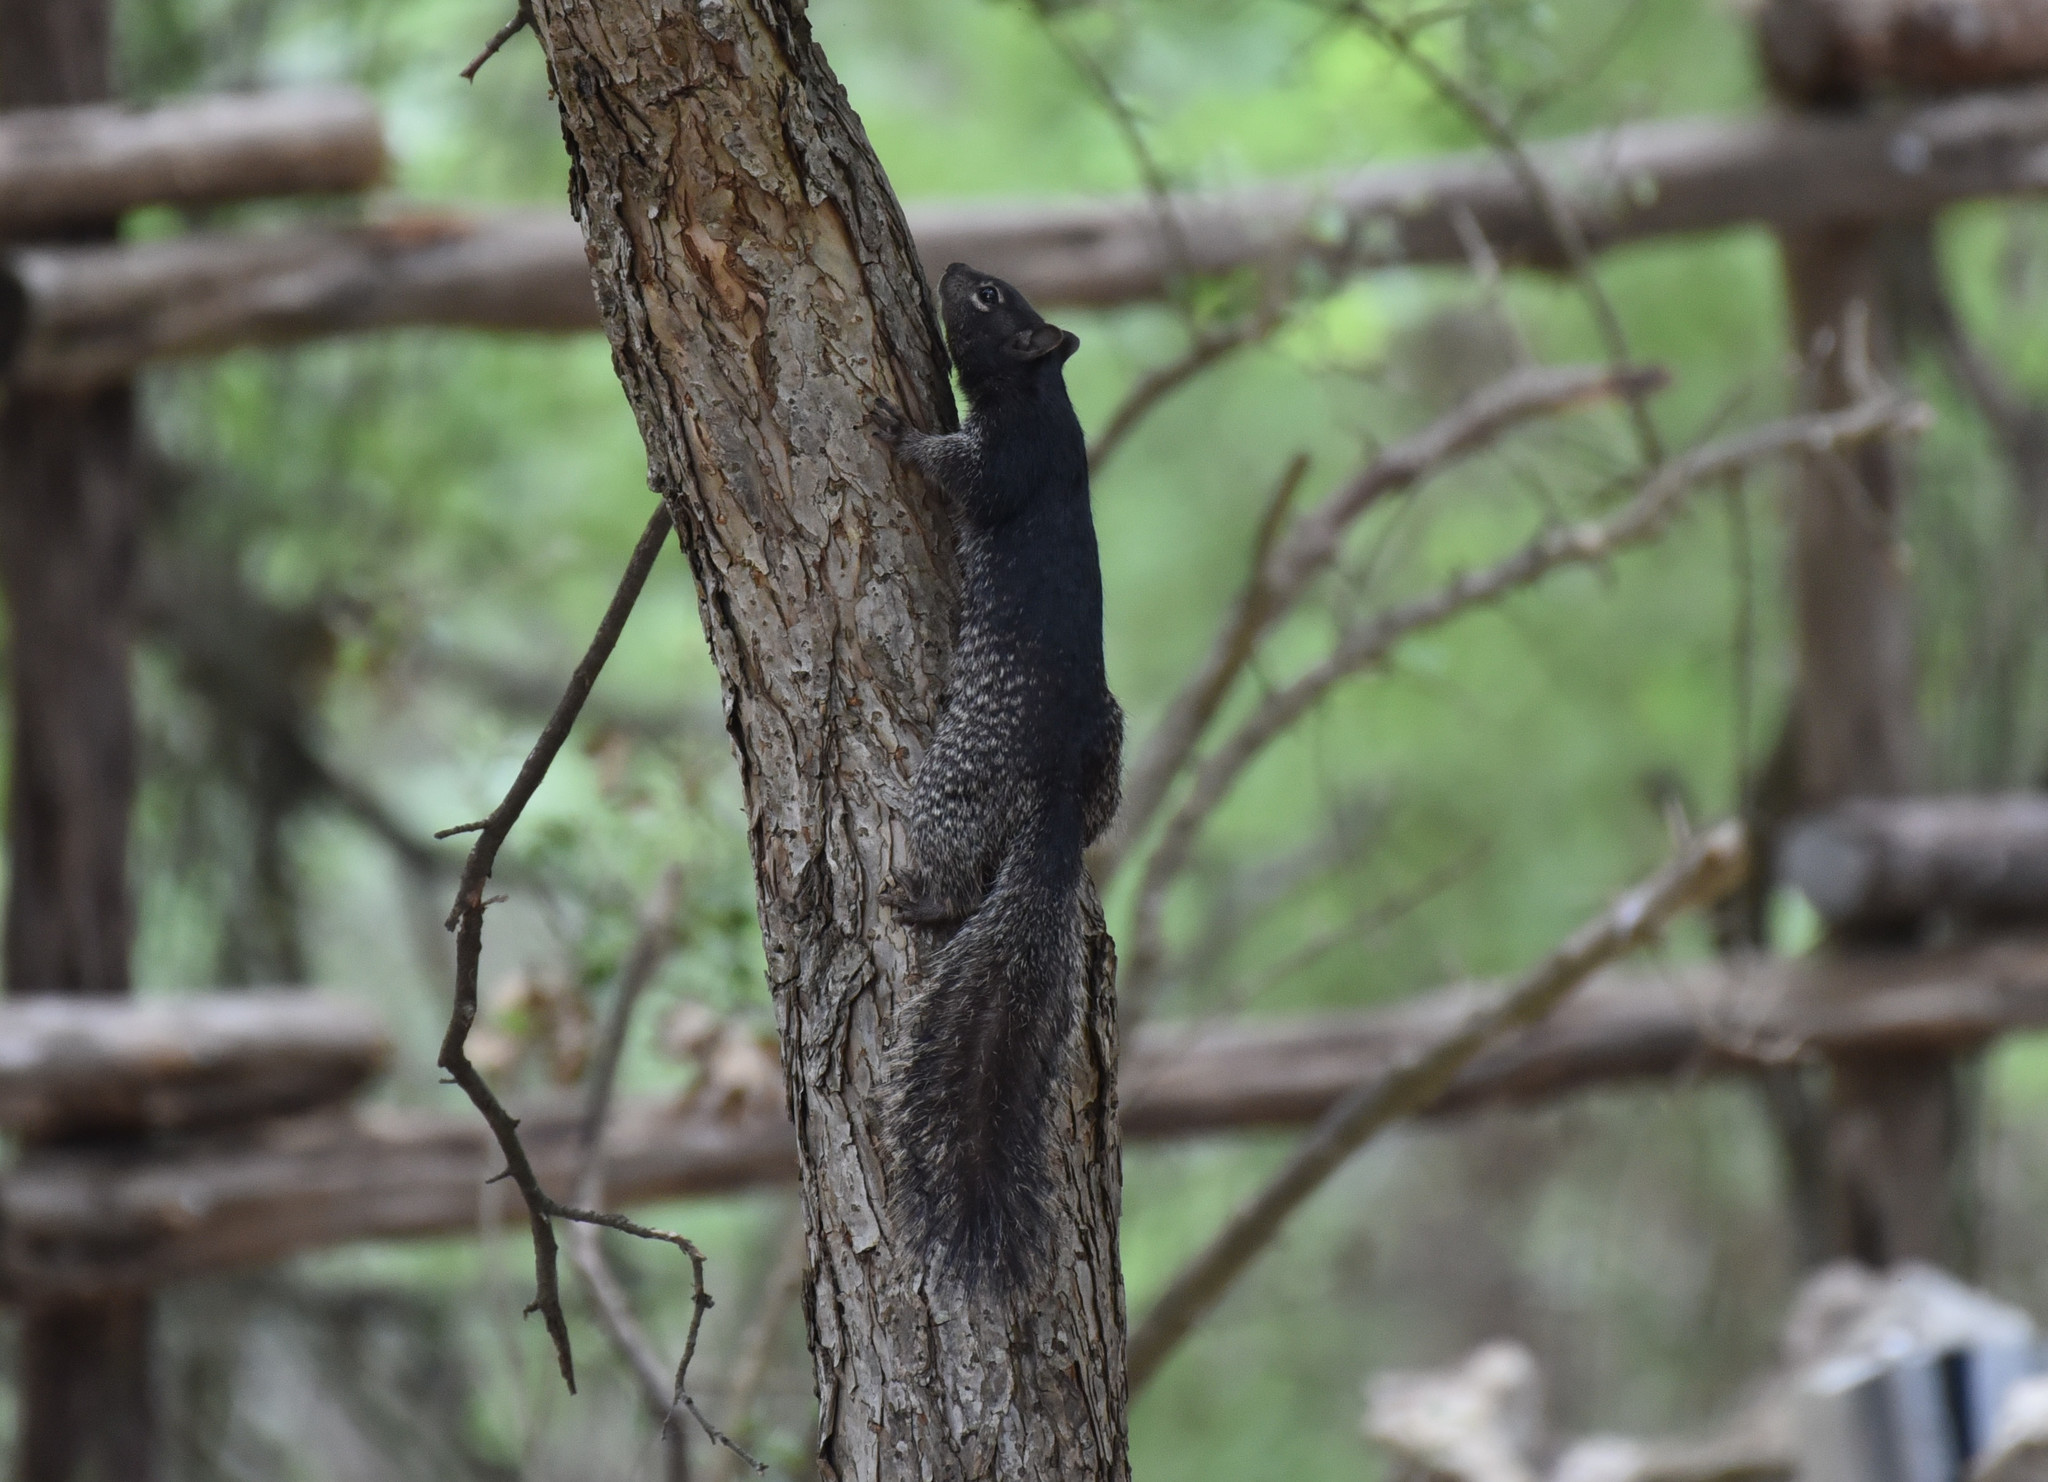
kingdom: Animalia
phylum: Chordata
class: Mammalia
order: Rodentia
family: Sciuridae
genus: Otospermophilus
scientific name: Otospermophilus variegatus
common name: Rock squirrel
